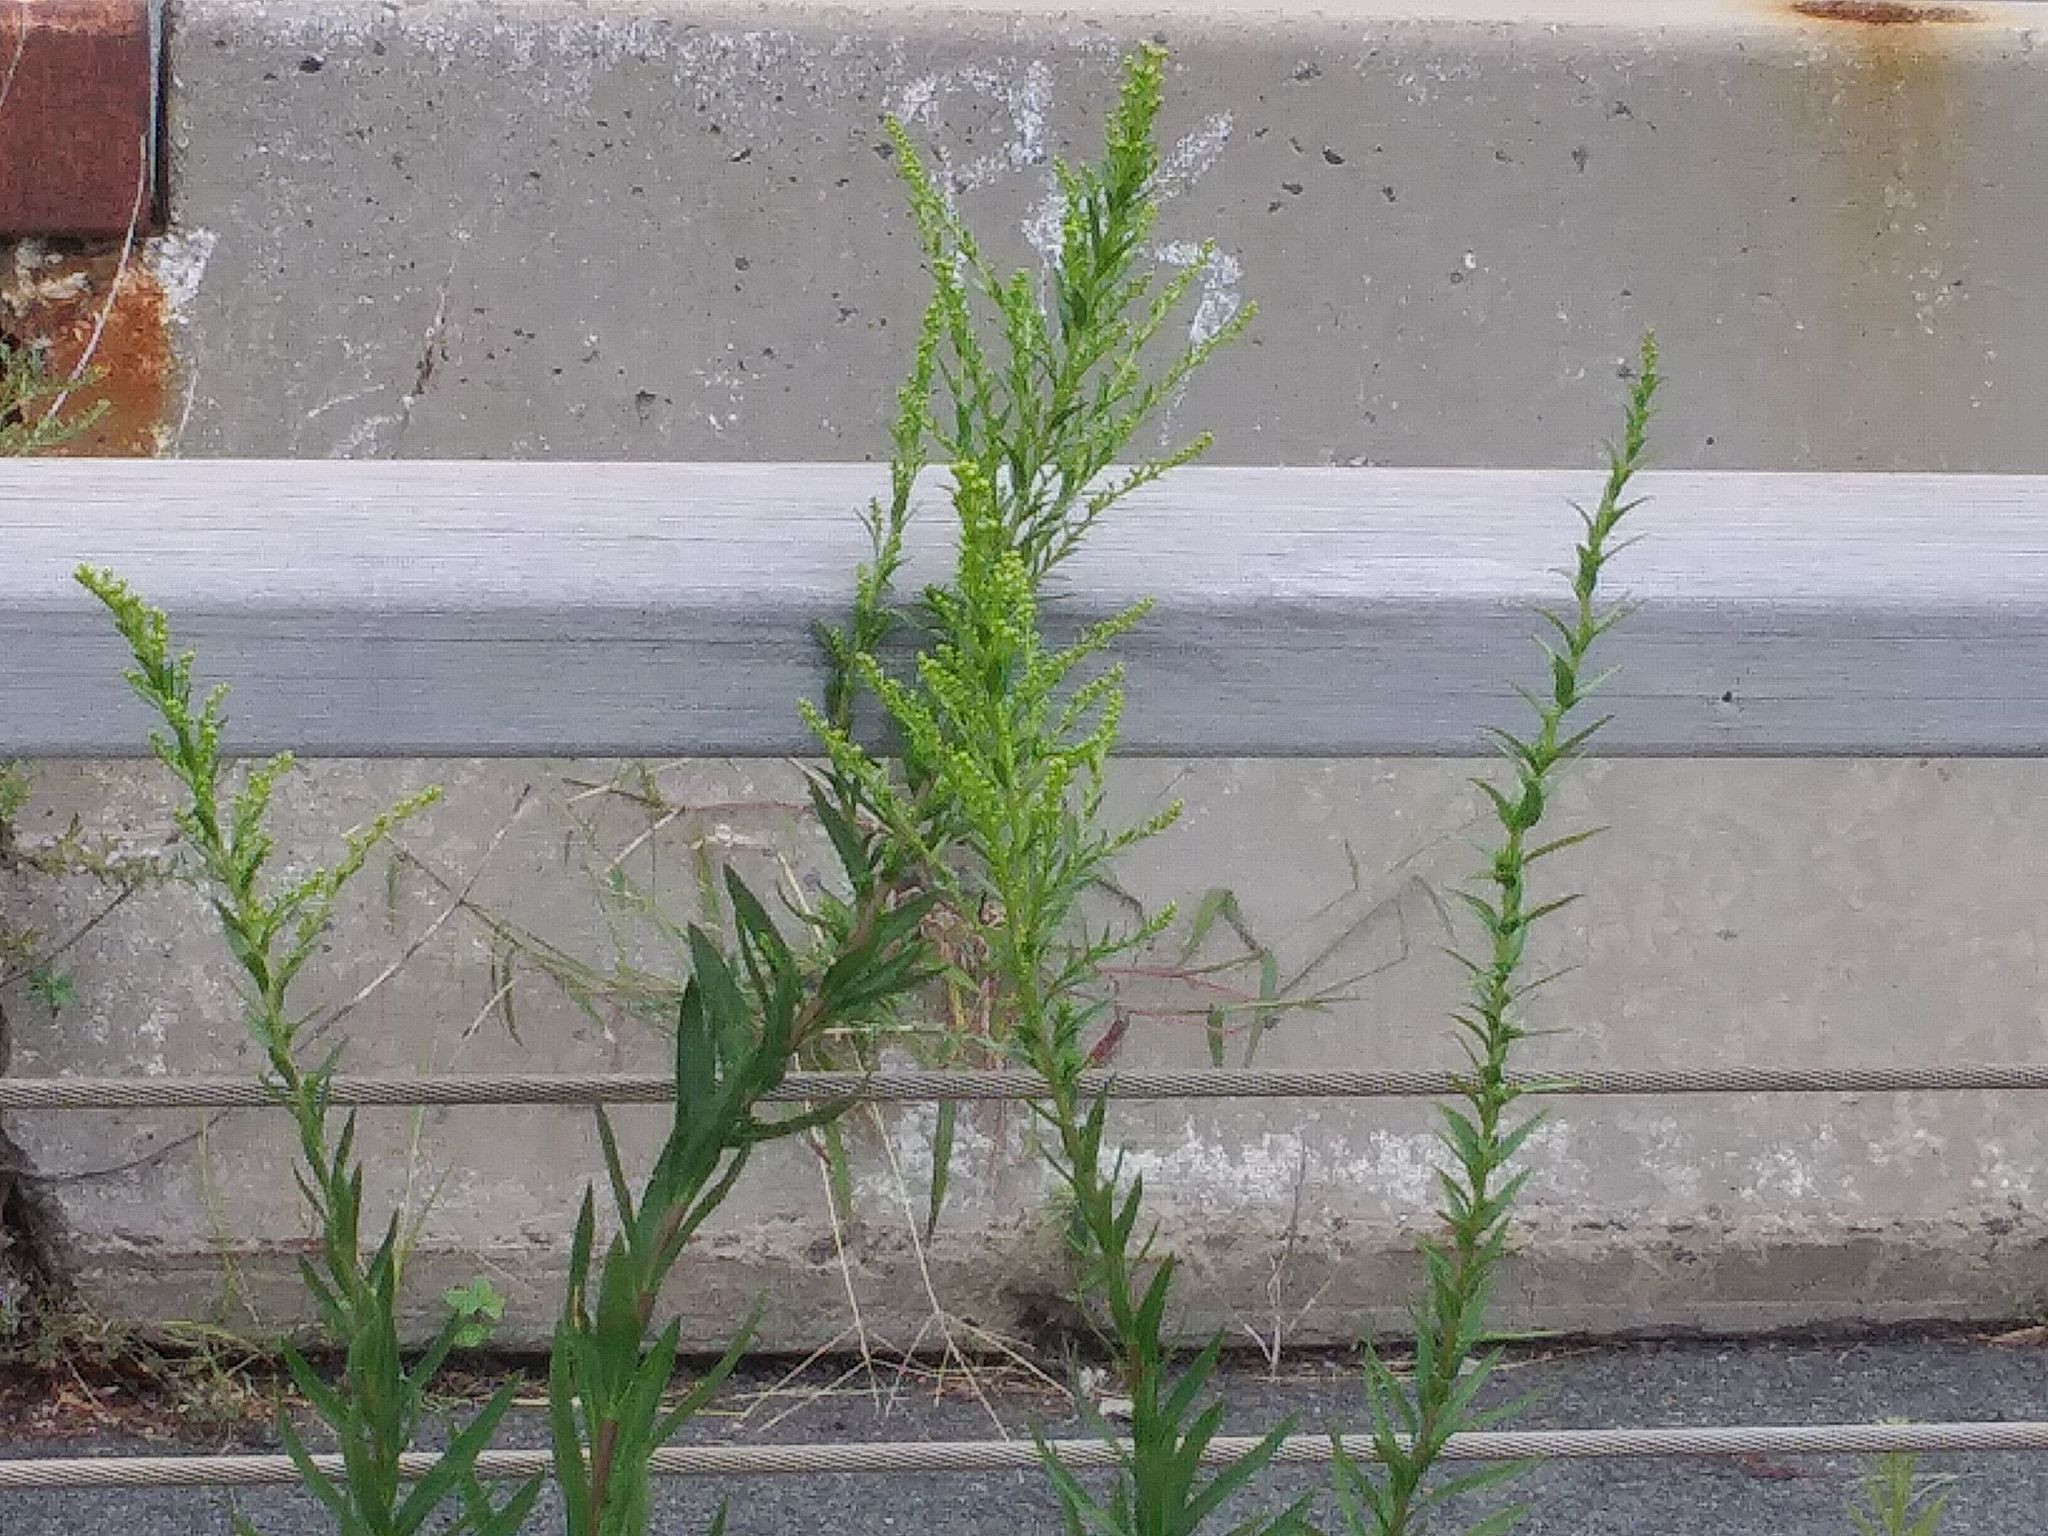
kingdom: Plantae
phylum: Tracheophyta
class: Magnoliopsida
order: Asterales
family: Asteraceae
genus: Solidago
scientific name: Solidago sempervirens
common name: Salt-marsh goldenrod
